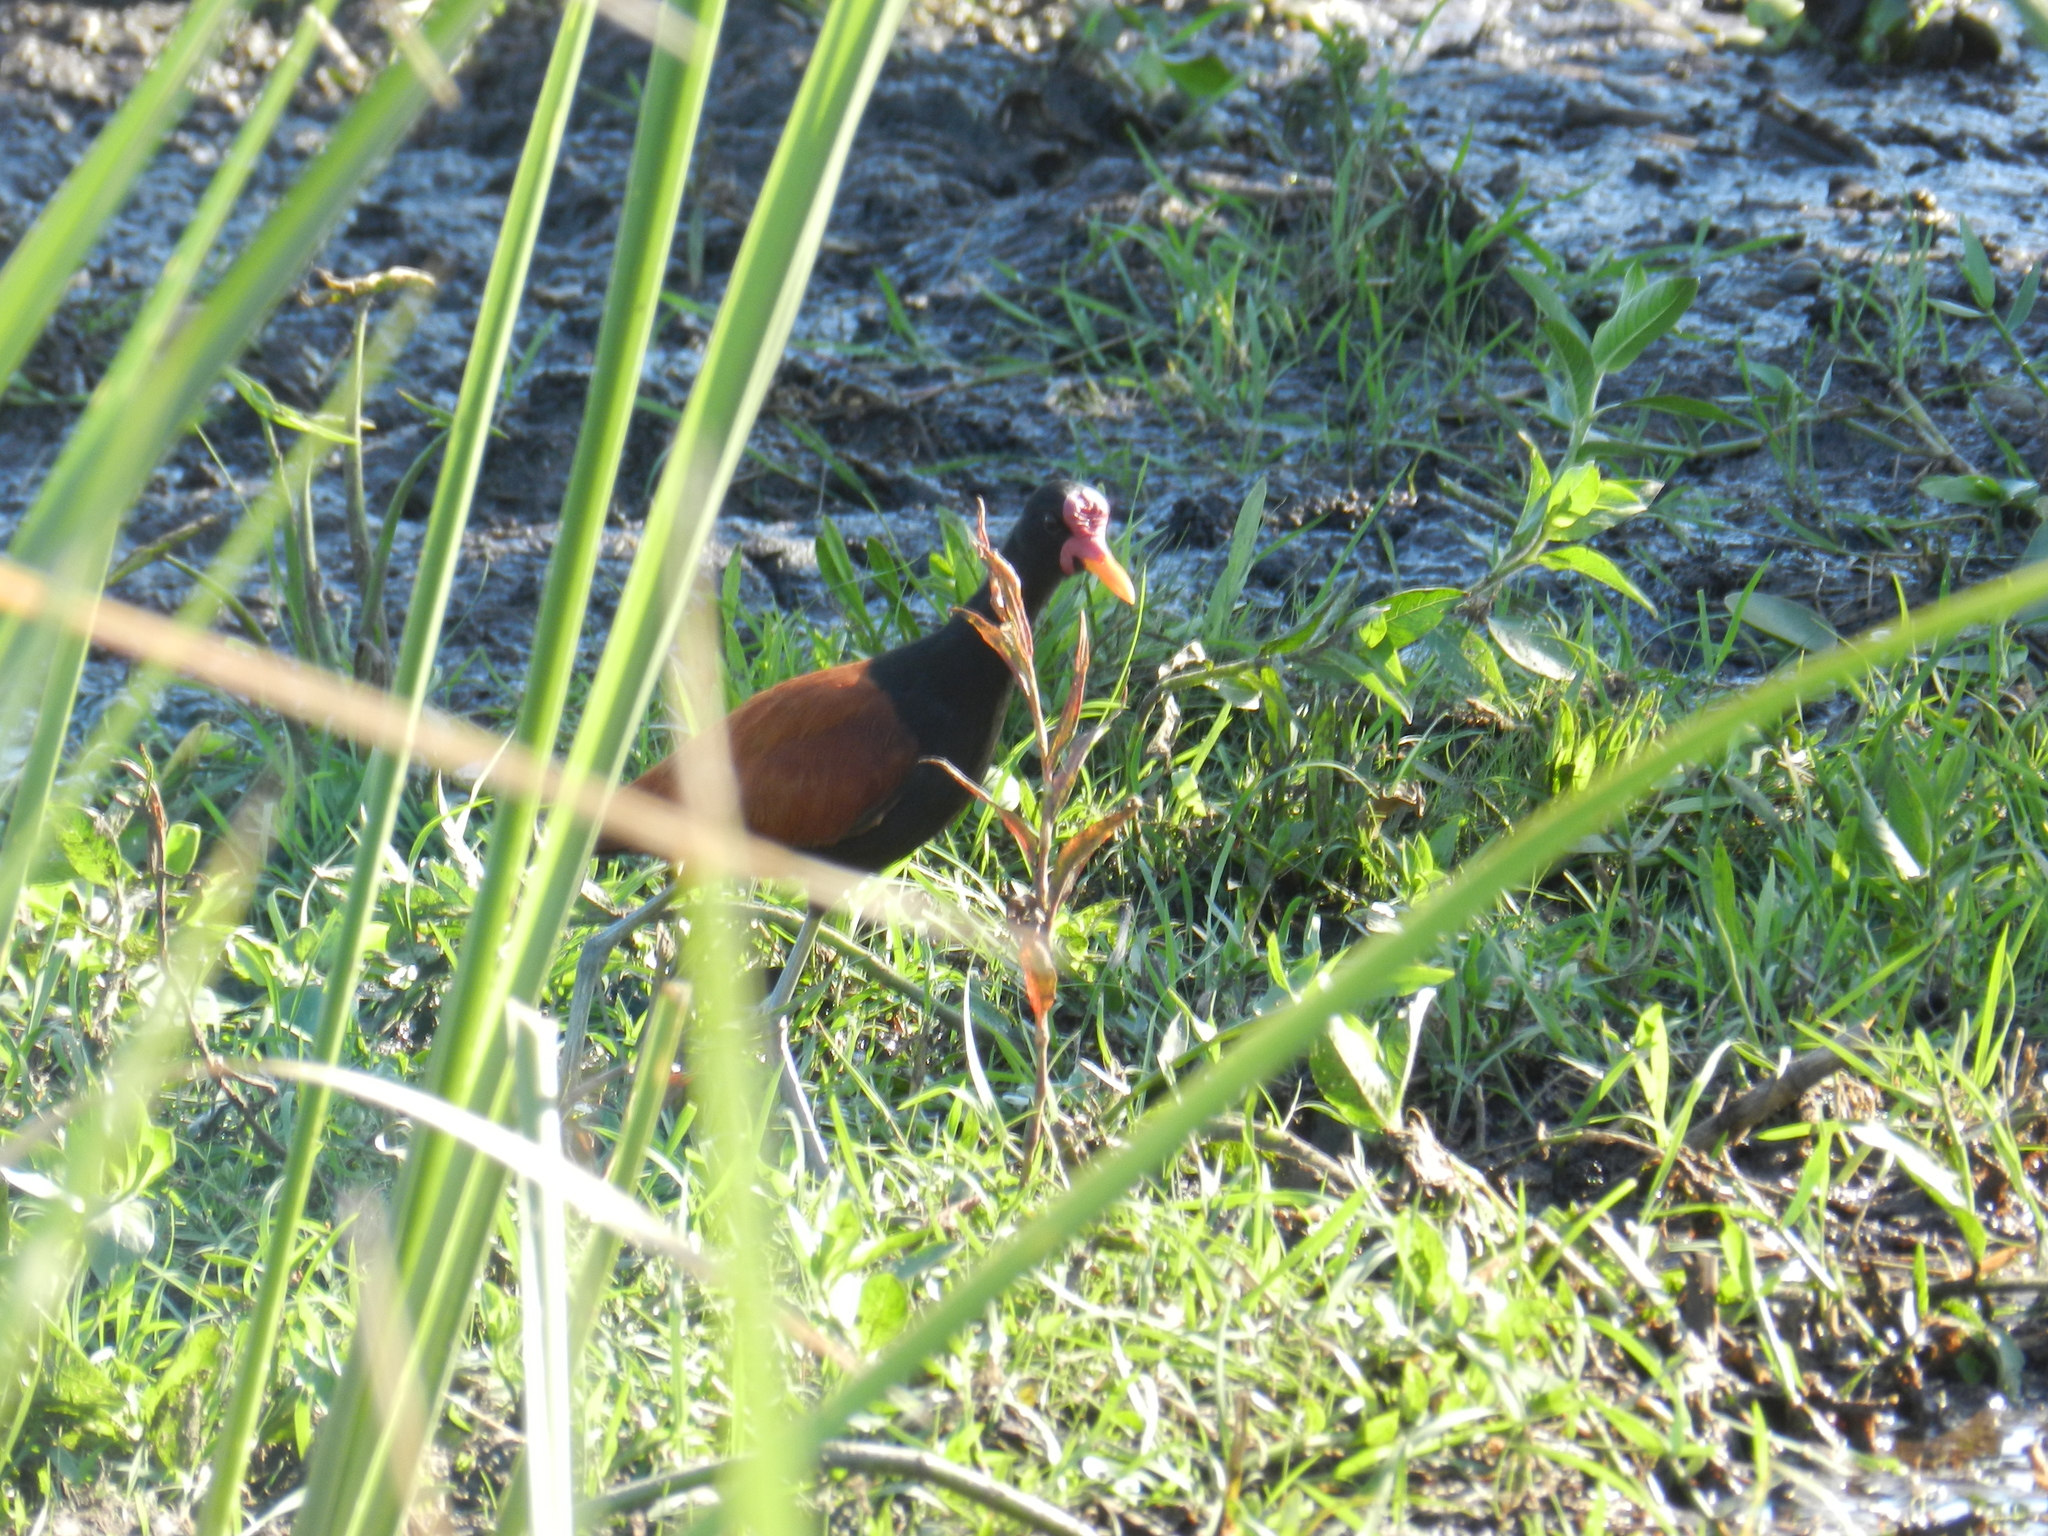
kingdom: Animalia
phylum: Chordata
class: Aves
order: Charadriiformes
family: Jacanidae
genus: Jacana
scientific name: Jacana jacana
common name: Wattled jacana
